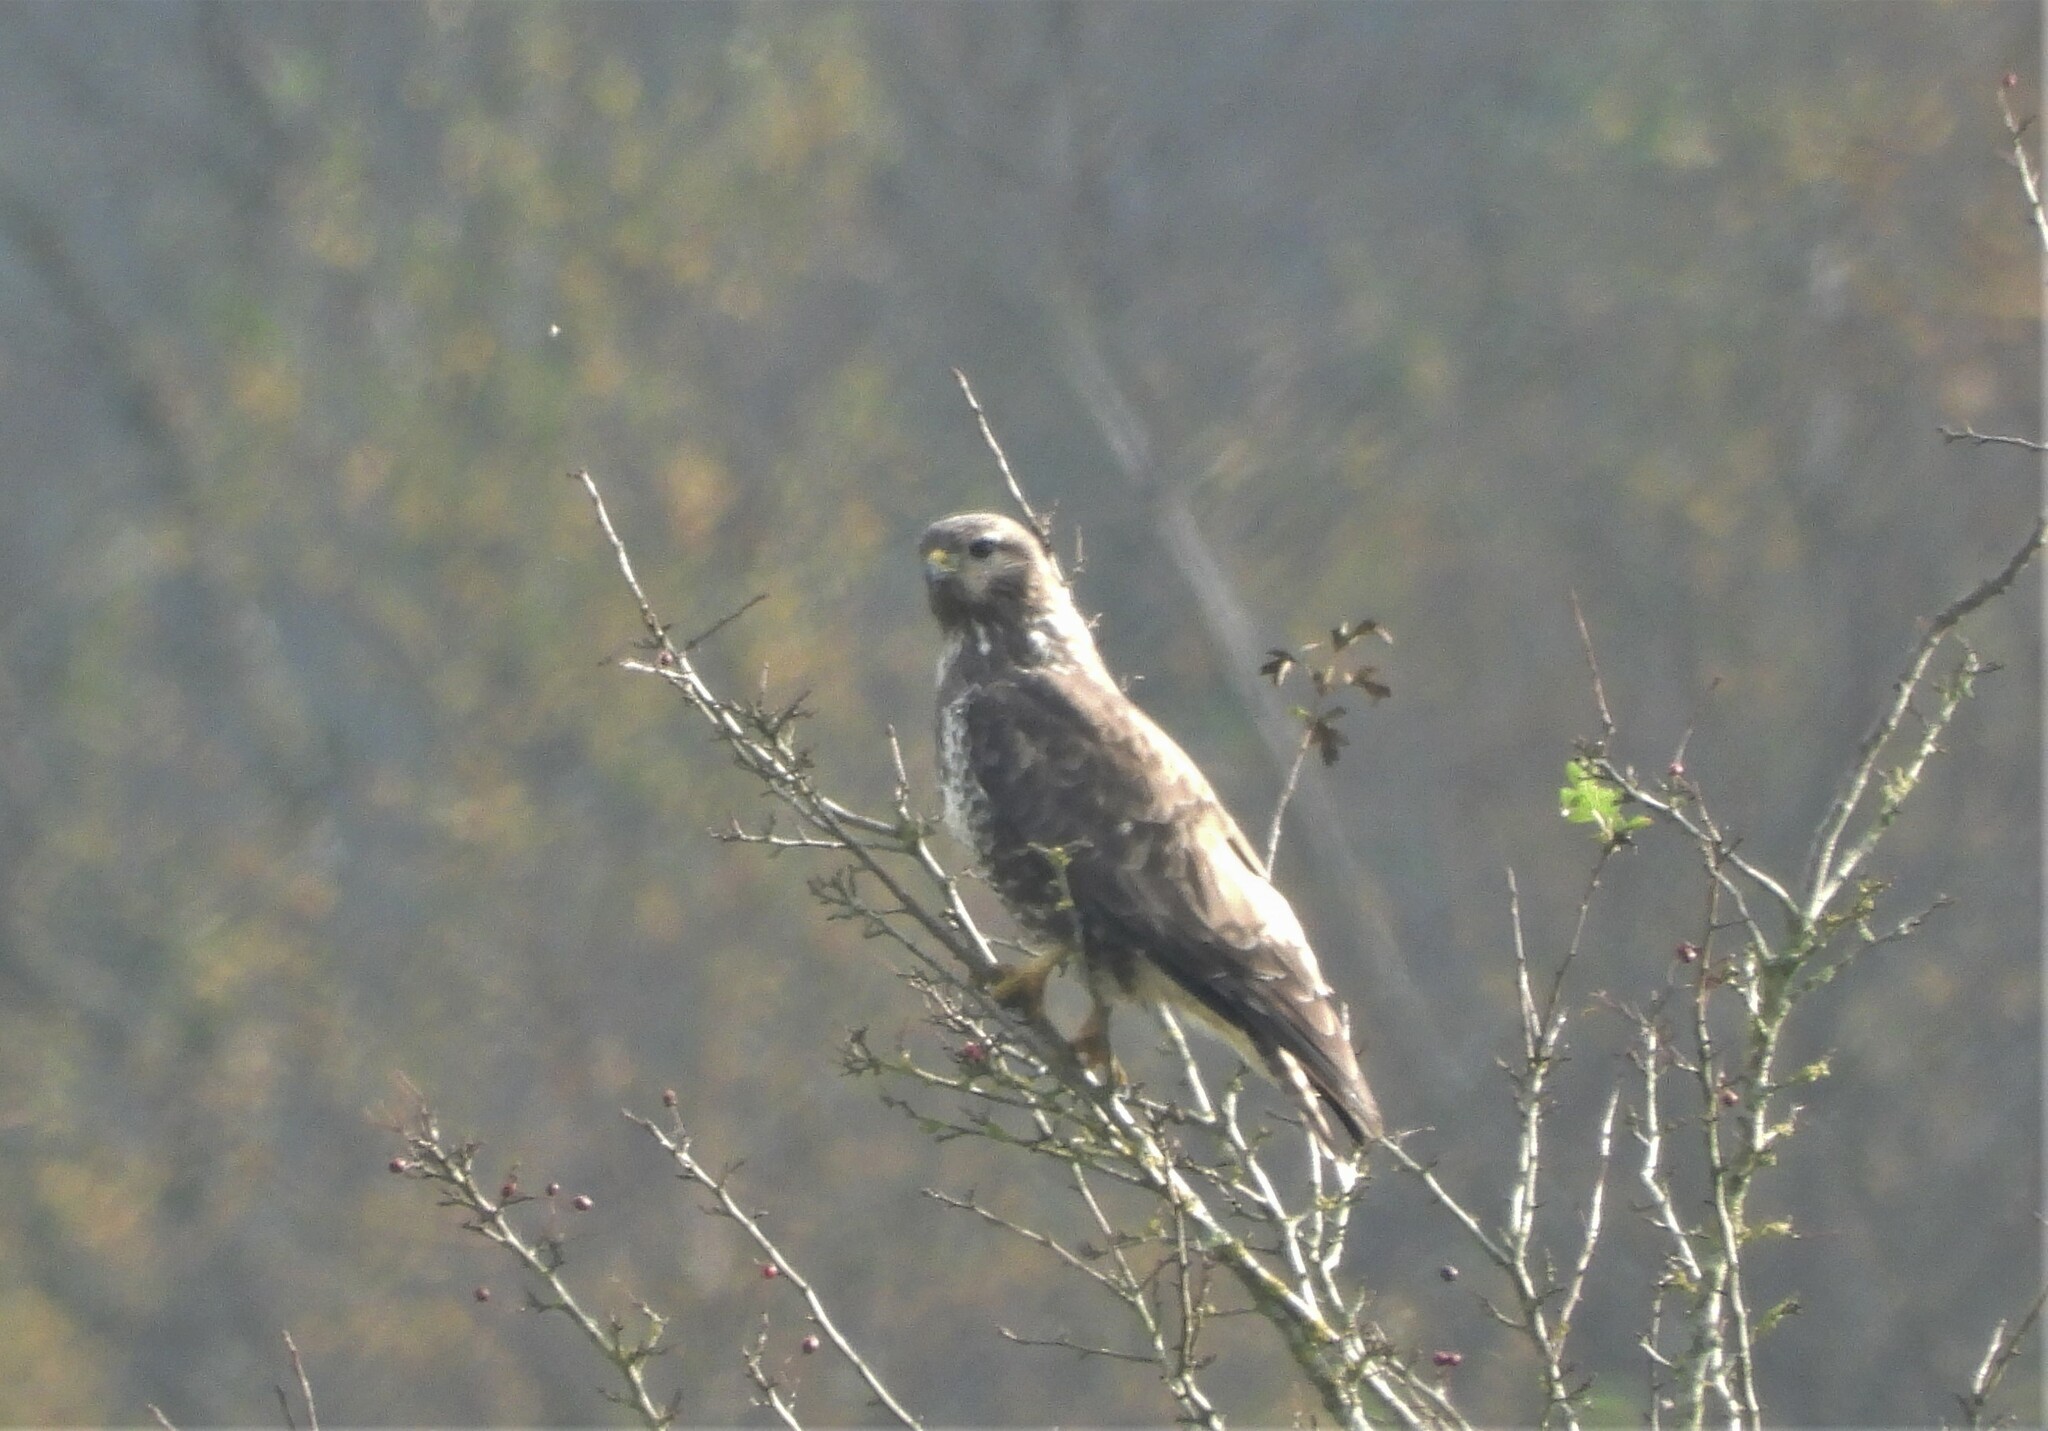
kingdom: Animalia
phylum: Chordata
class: Aves
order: Accipitriformes
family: Accipitridae
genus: Buteo
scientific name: Buteo buteo
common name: Common buzzard
